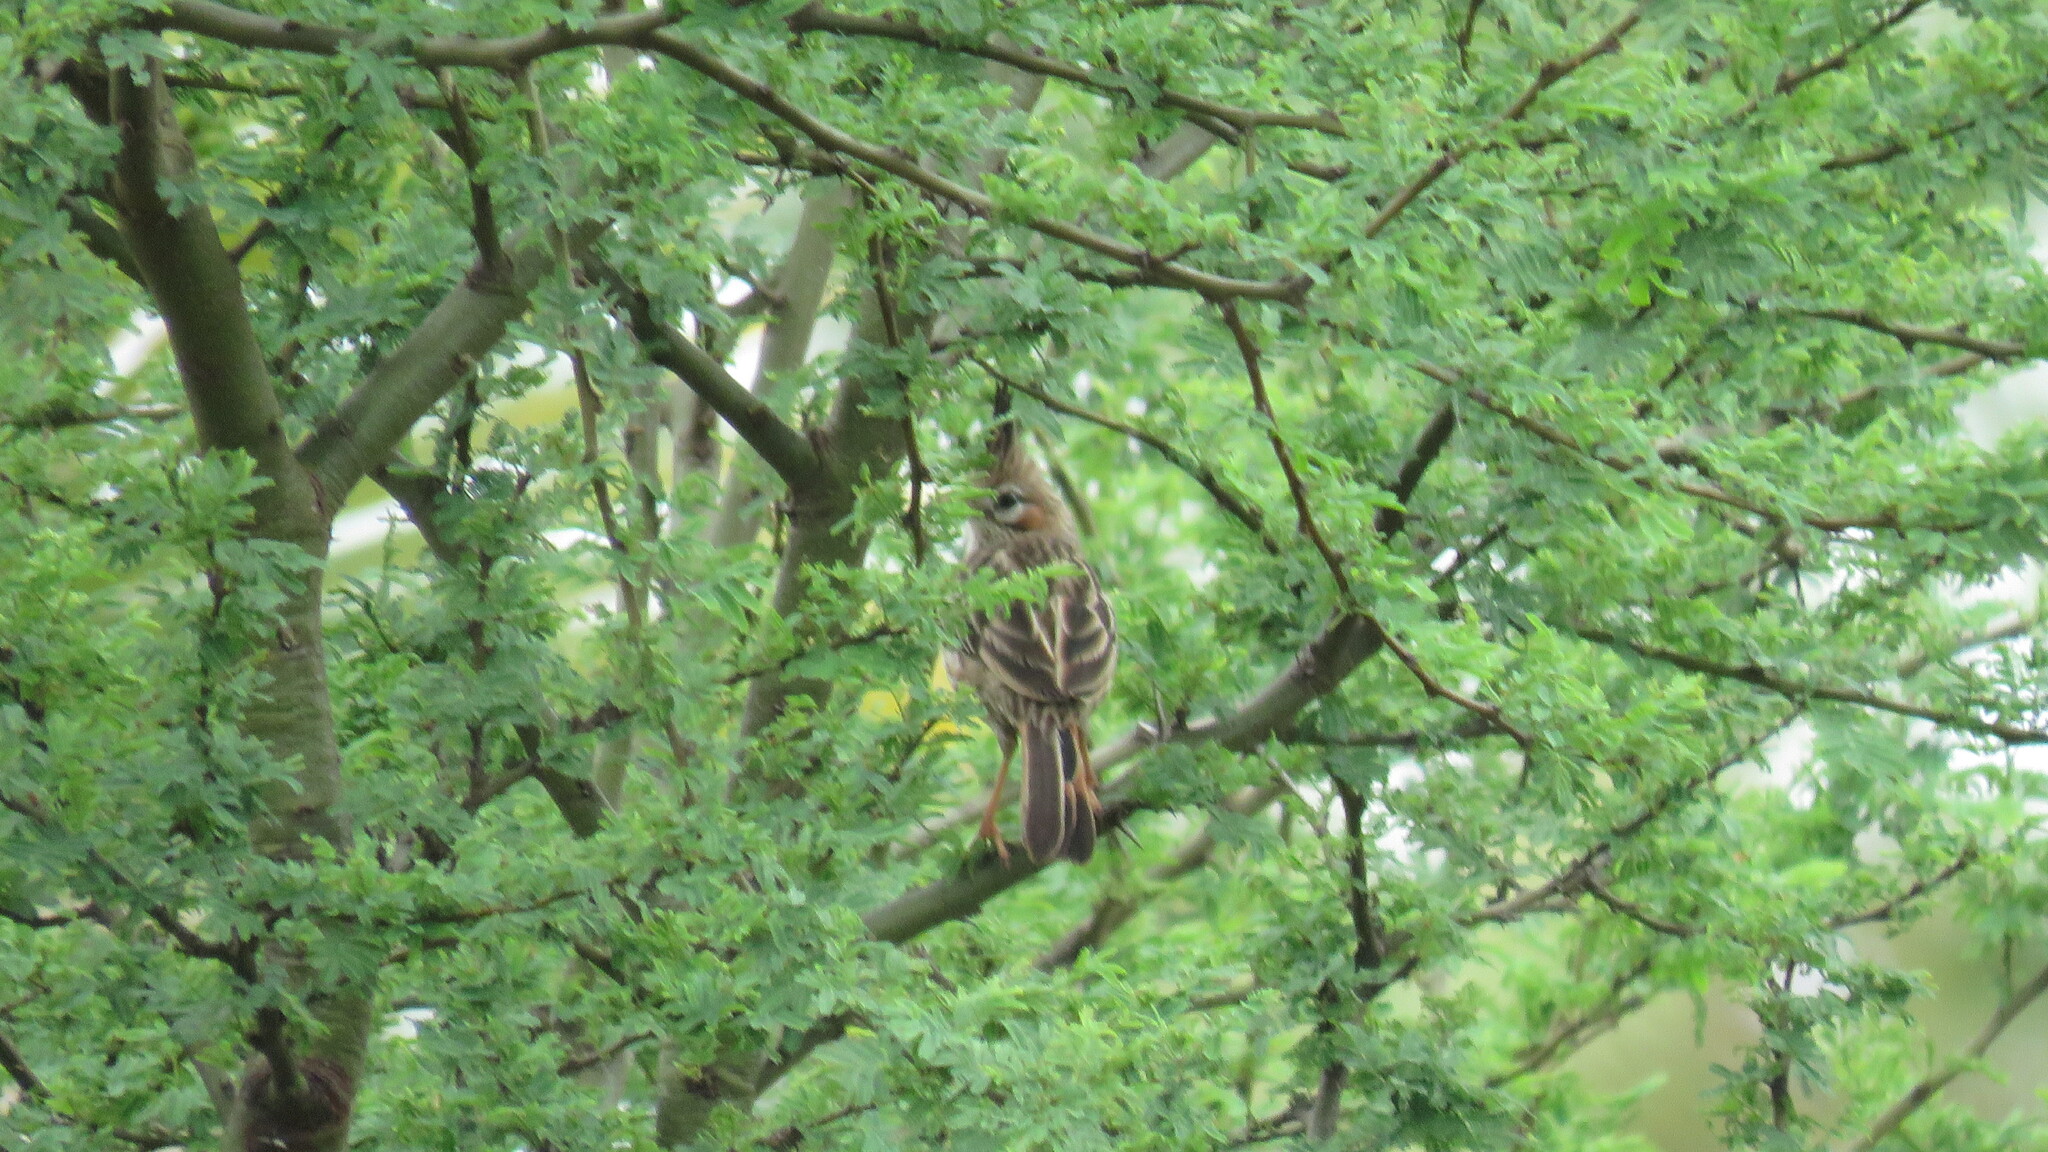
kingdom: Animalia
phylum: Chordata
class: Aves
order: Passeriformes
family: Furnariidae
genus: Coryphistera
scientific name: Coryphistera alaudina
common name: Lark-like brushrunner
